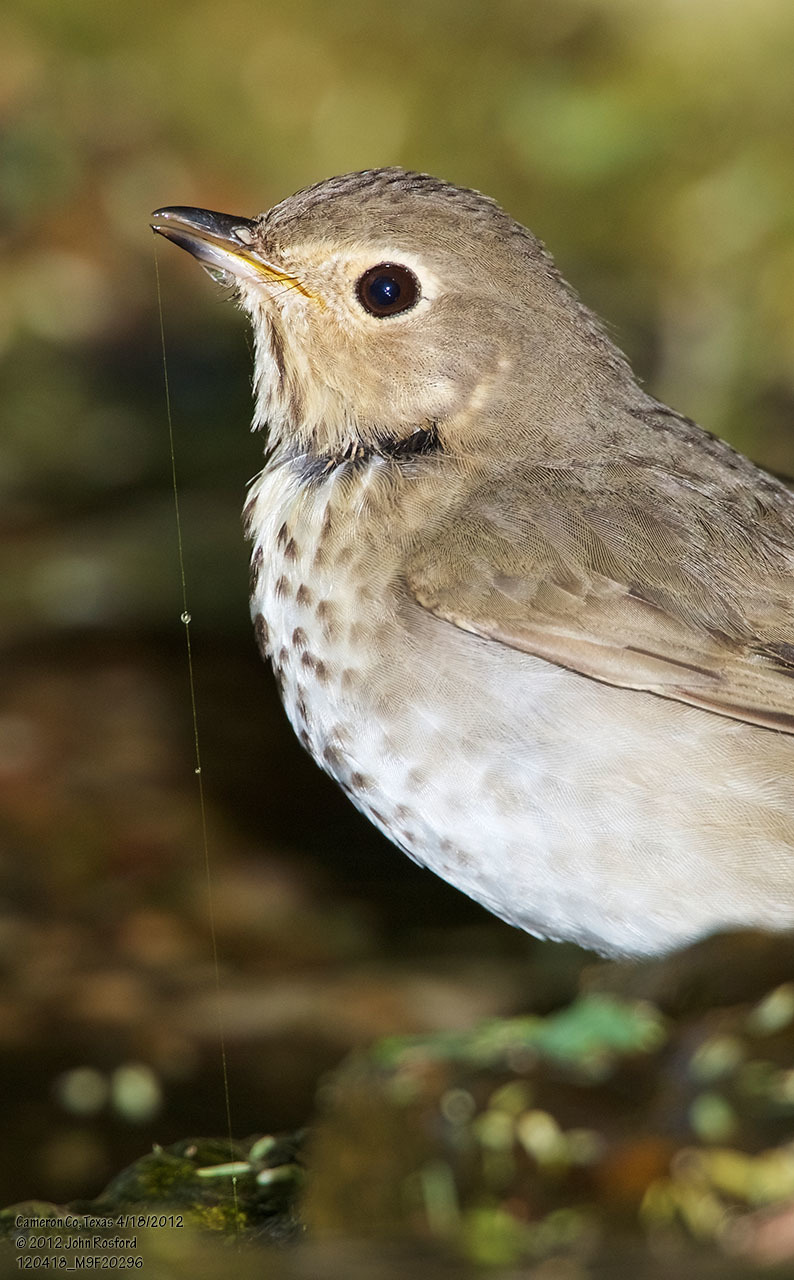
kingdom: Animalia
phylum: Chordata
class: Aves
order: Passeriformes
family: Turdidae
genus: Catharus
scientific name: Catharus ustulatus
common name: Swainson's thrush
